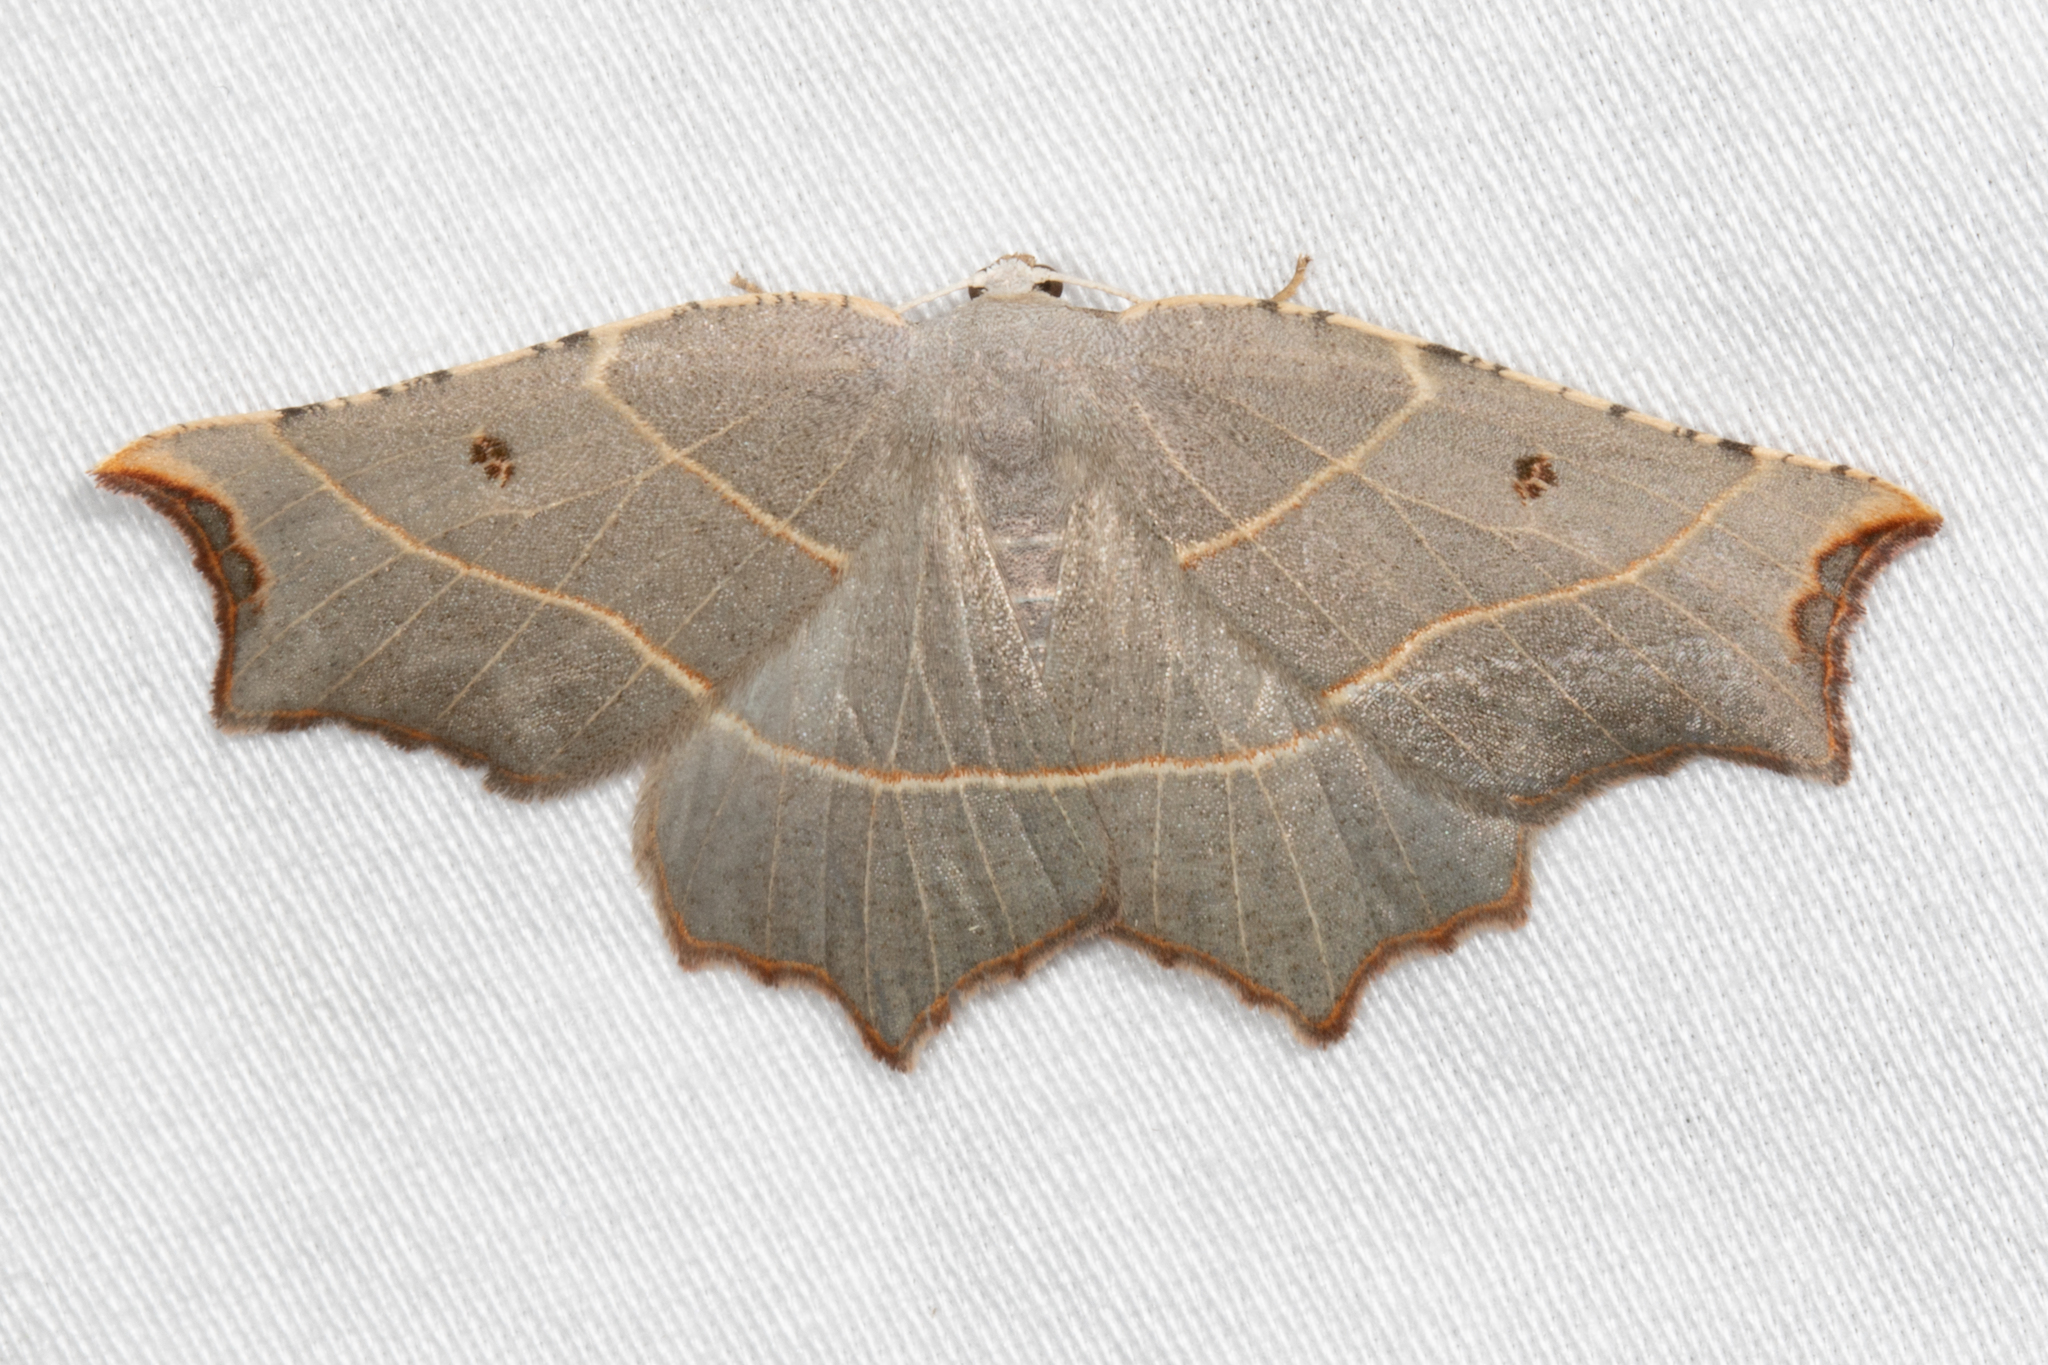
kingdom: Animalia
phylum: Arthropoda
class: Insecta
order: Lepidoptera
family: Geometridae
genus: Metanema
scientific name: Metanema inatomaria
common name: Pale metanema
